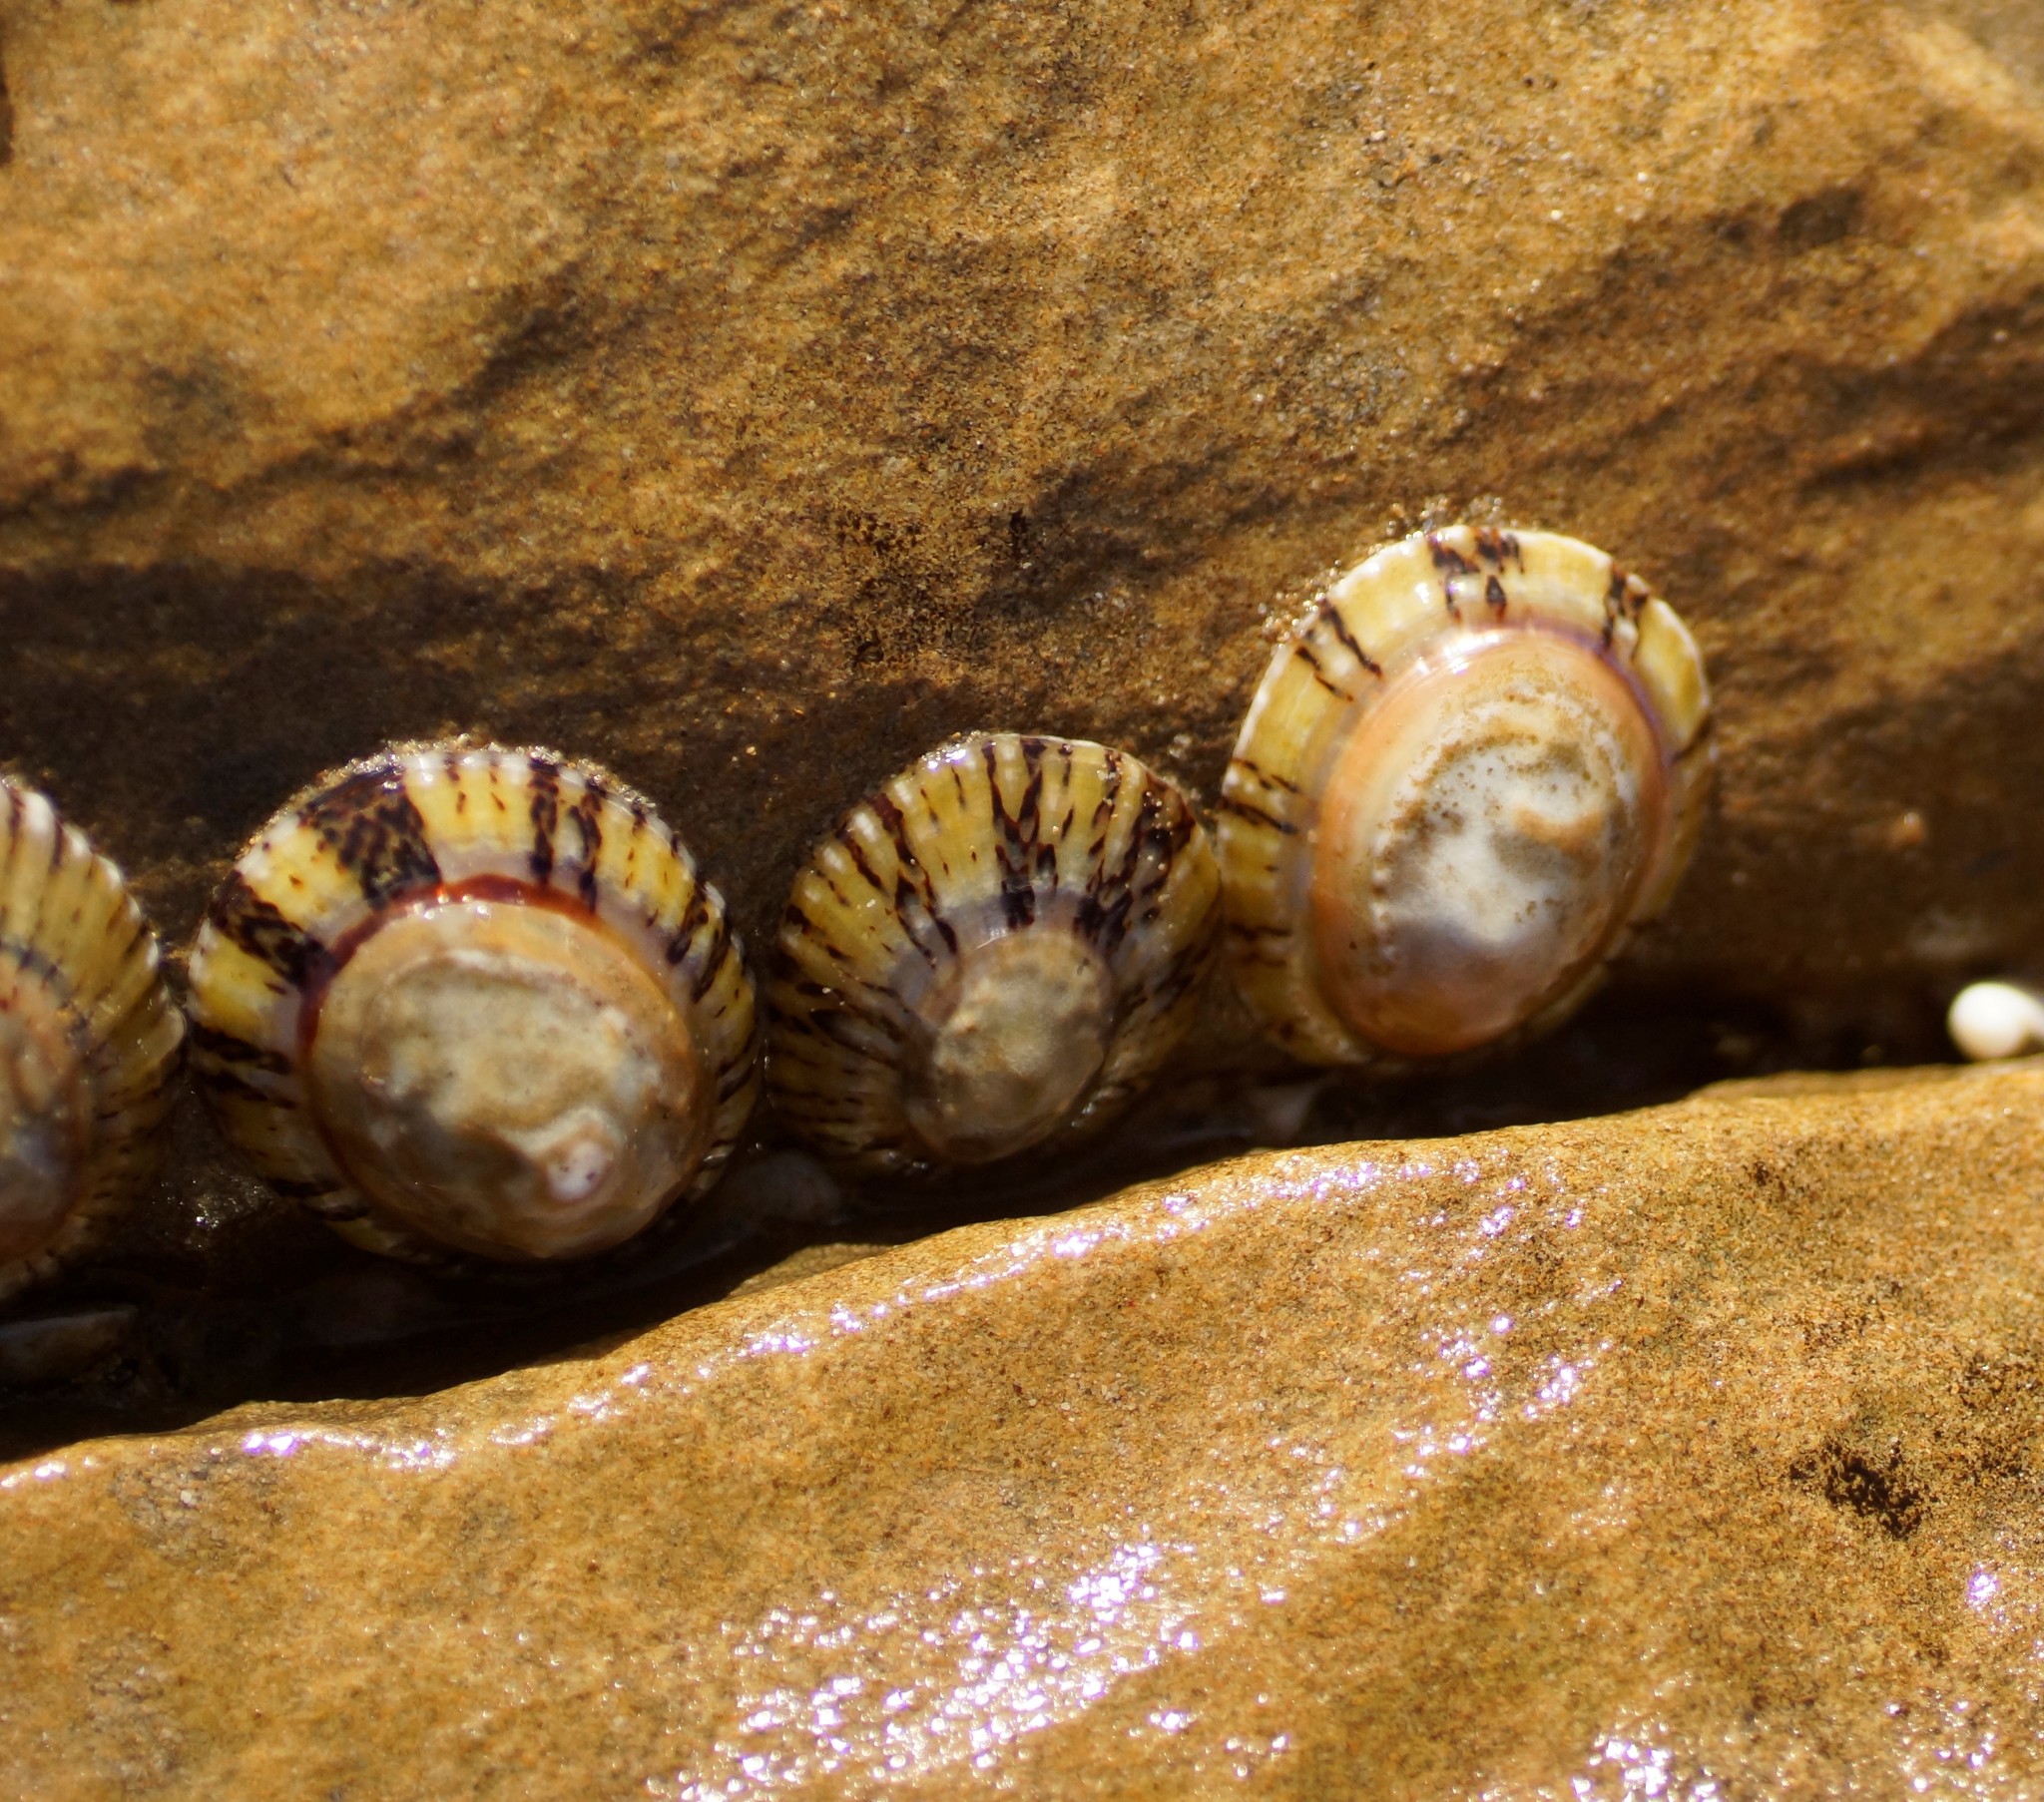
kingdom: Animalia
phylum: Mollusca
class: Gastropoda
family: Nacellidae
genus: Cellana
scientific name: Cellana tramoserica
